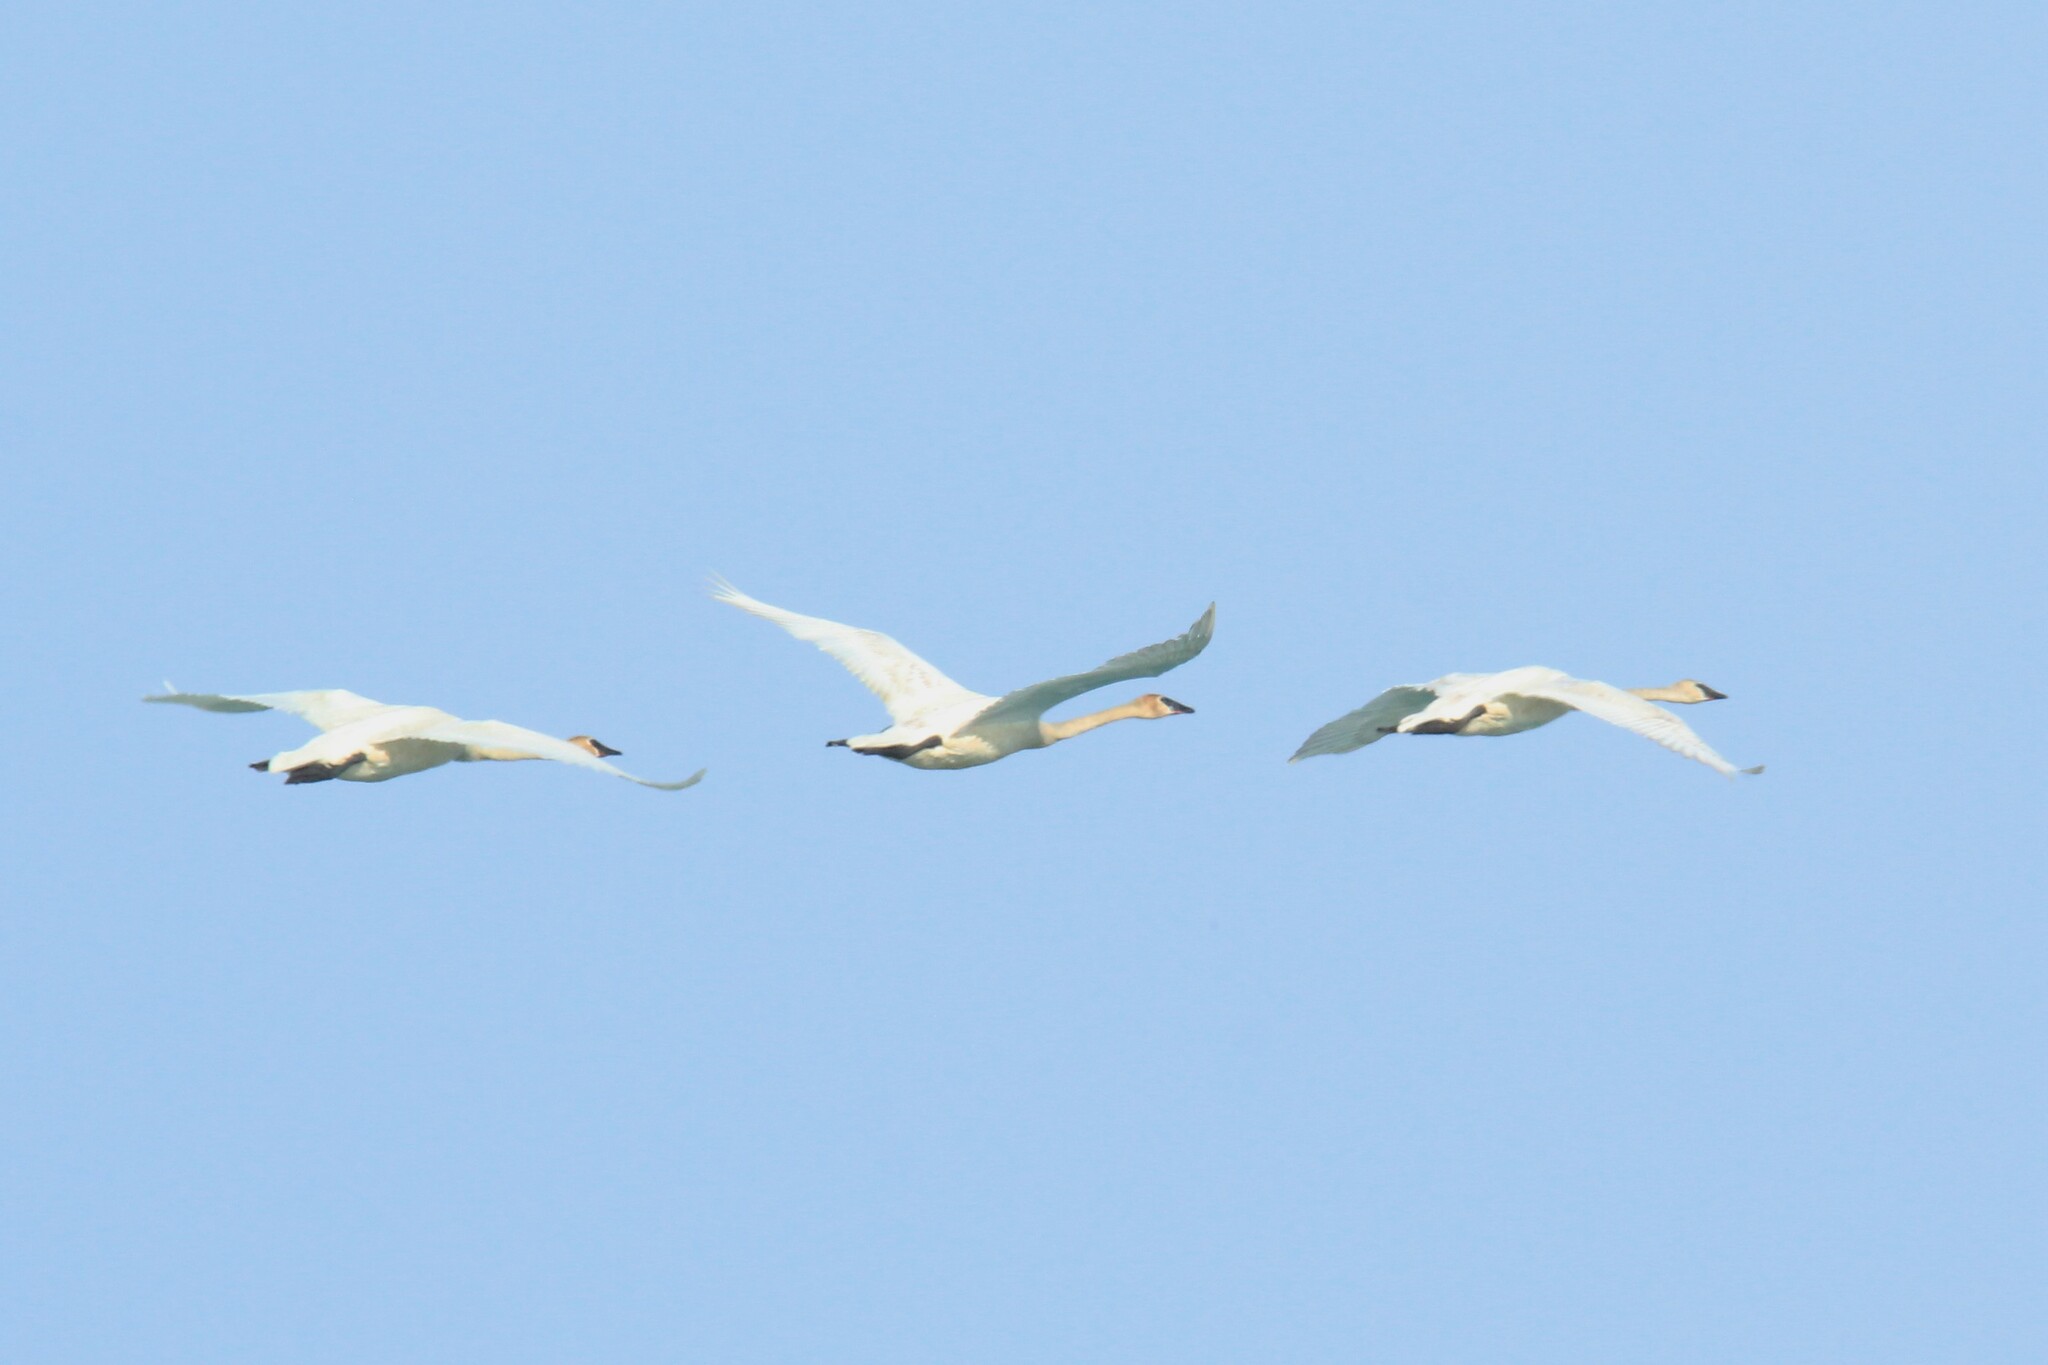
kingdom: Animalia
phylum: Chordata
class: Aves
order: Anseriformes
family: Anatidae
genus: Cygnus
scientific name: Cygnus buccinator
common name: Trumpeter swan
